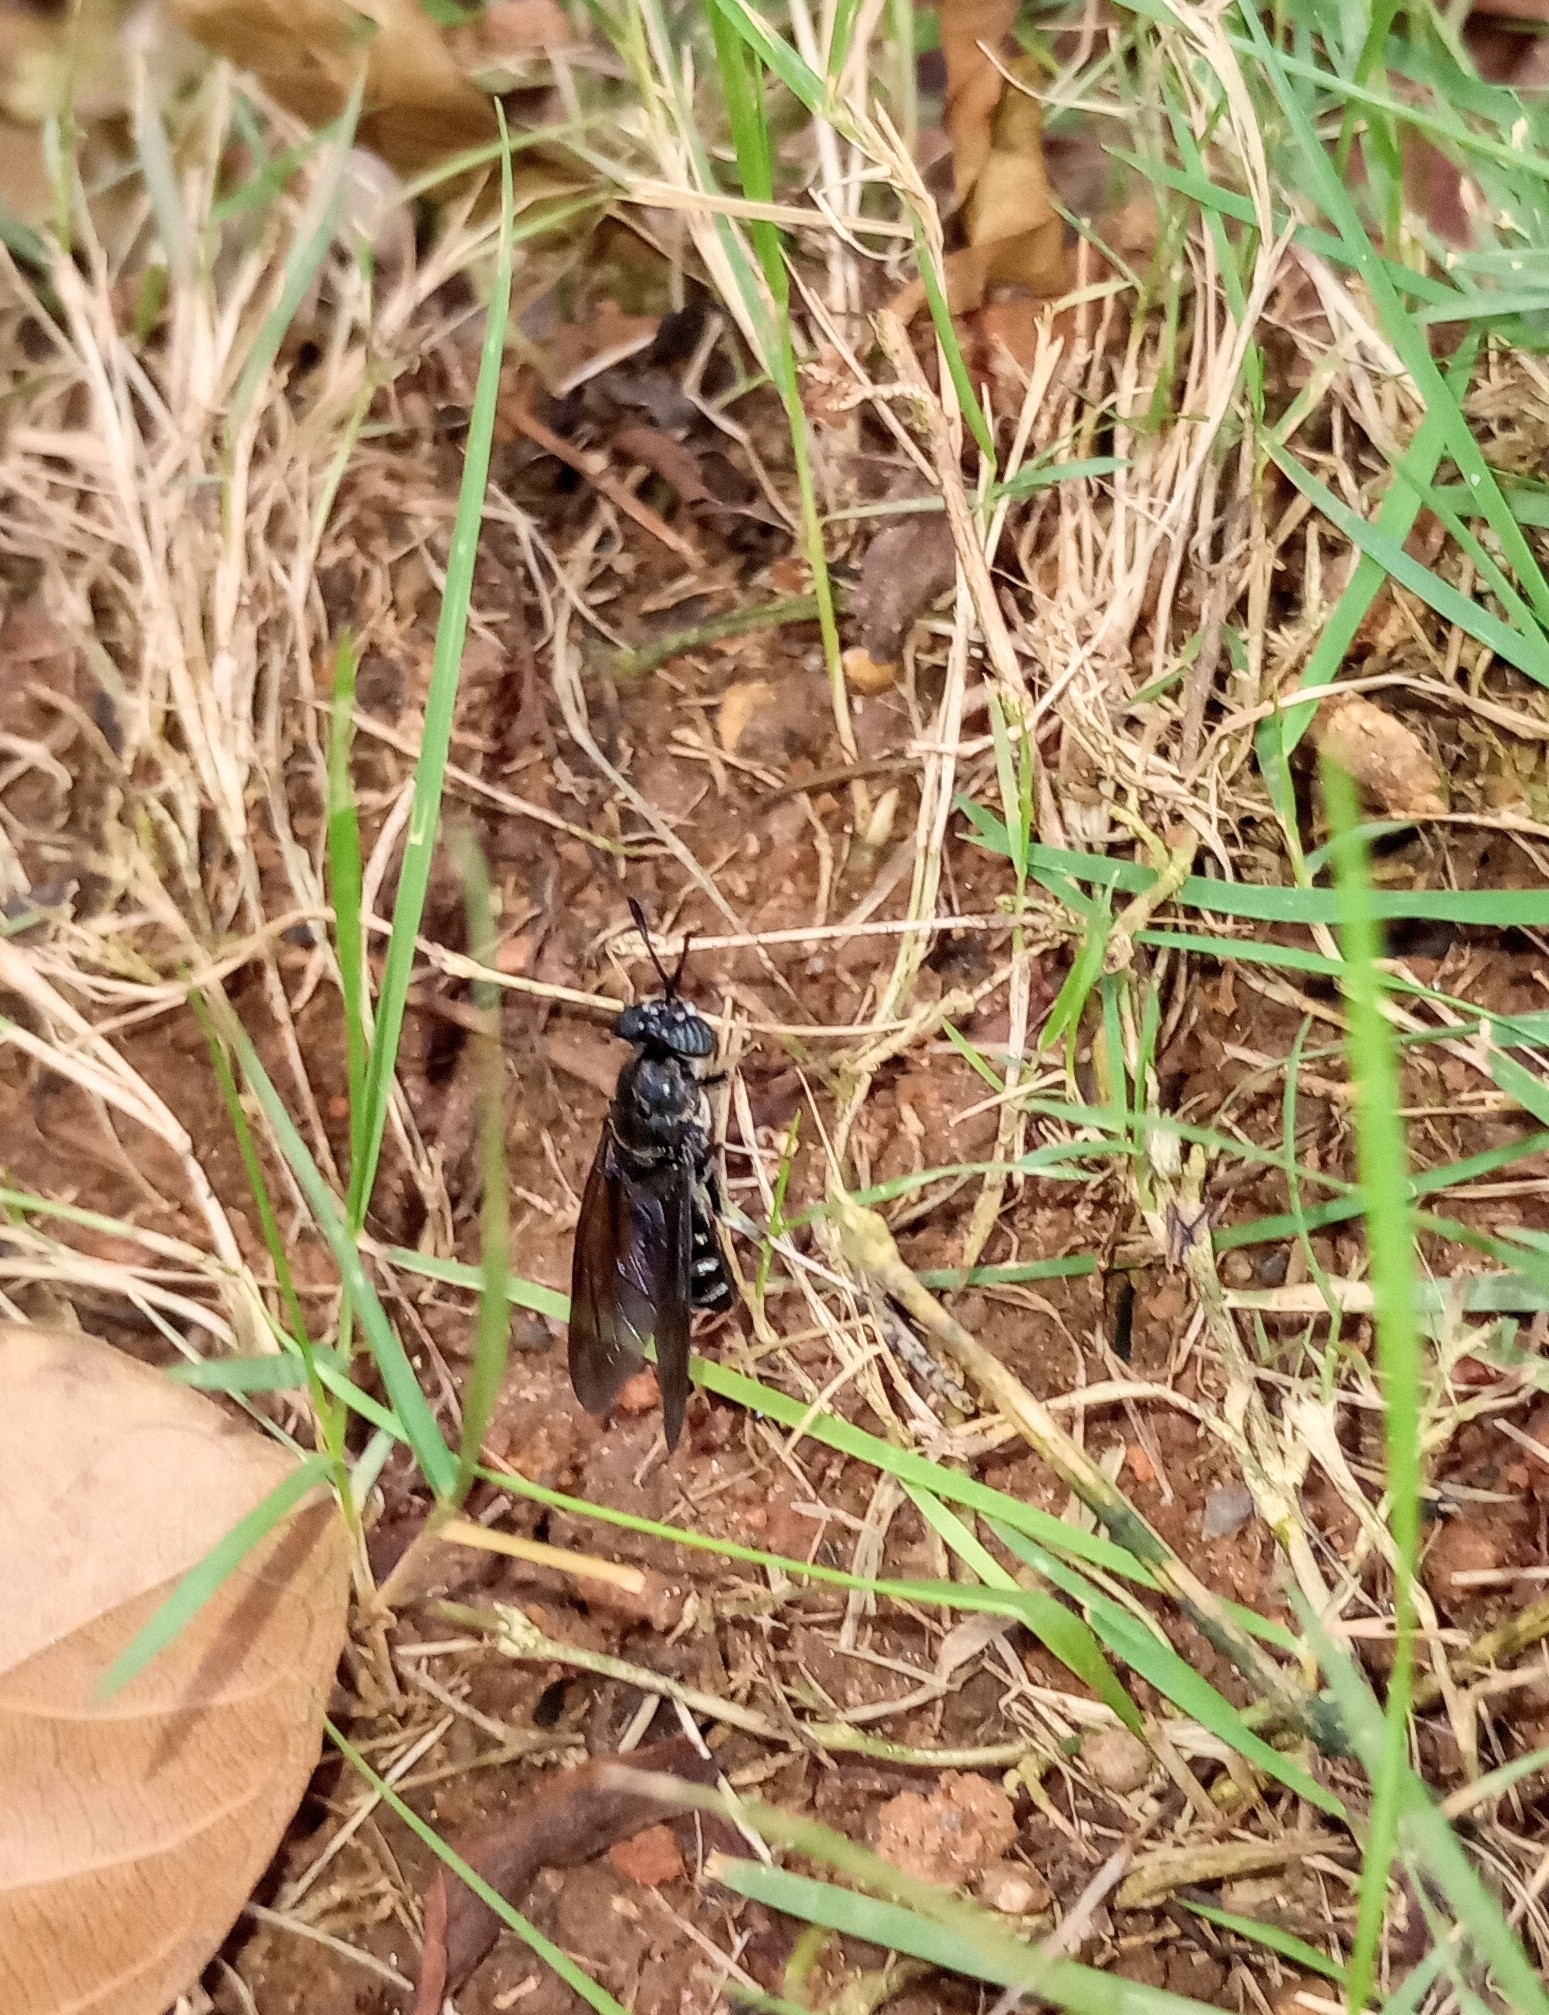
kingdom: Animalia
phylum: Arthropoda
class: Insecta
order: Diptera
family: Stratiomyidae
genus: Hermetia
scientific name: Hermetia illucens
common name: Black soldier fly
